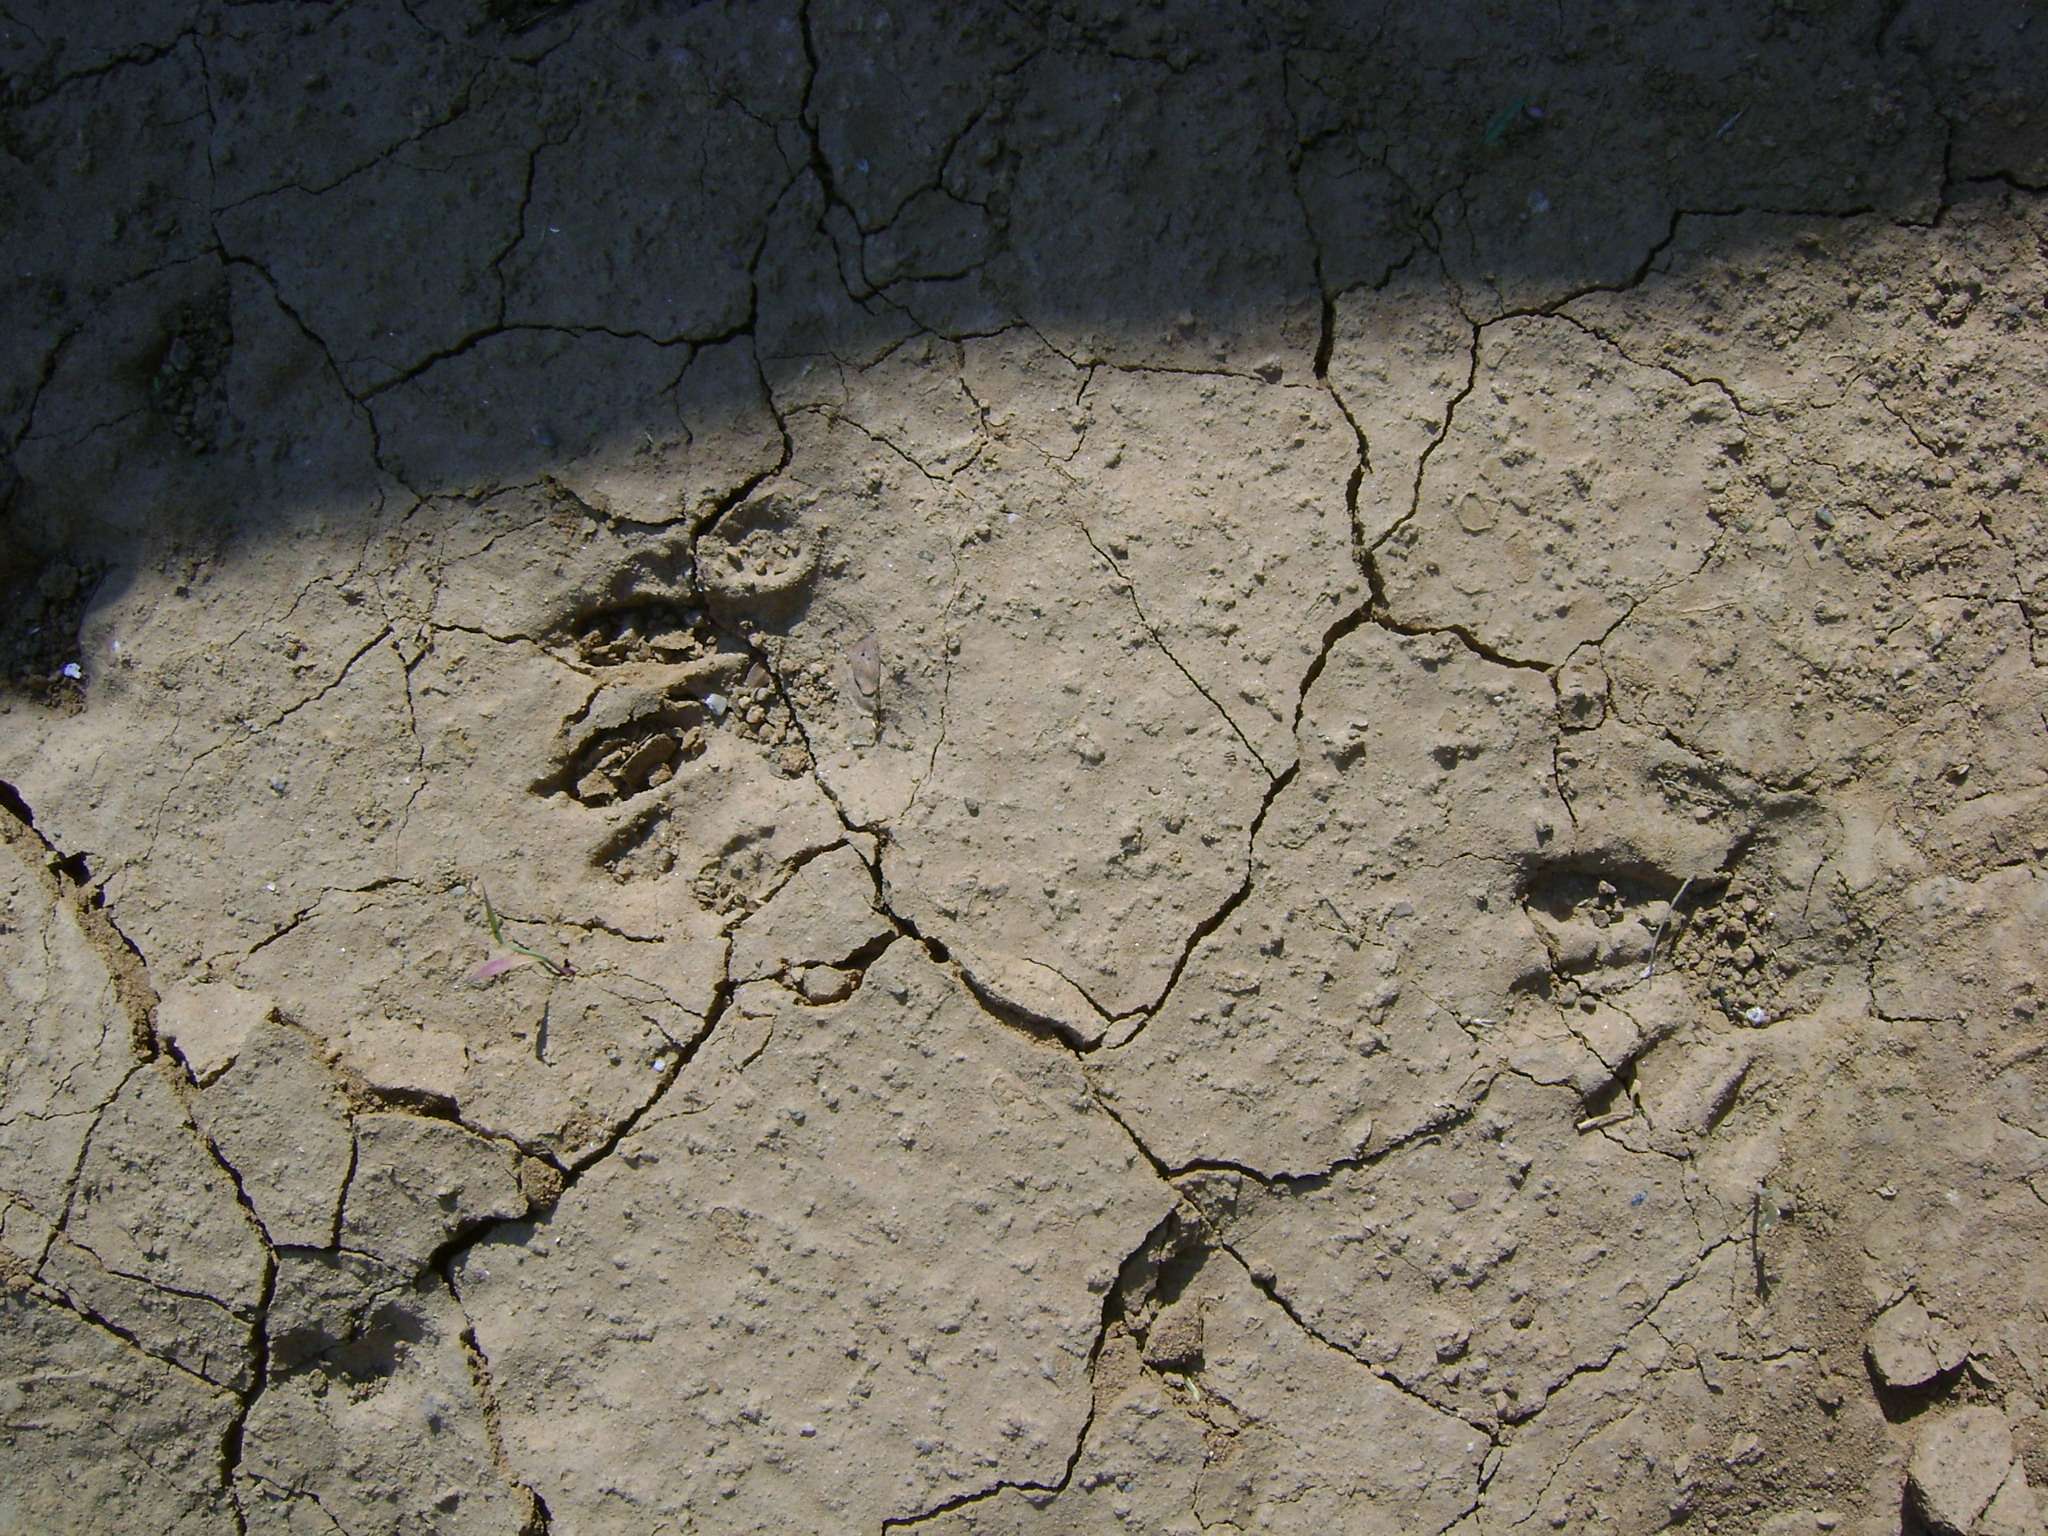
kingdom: Animalia
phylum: Chordata
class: Mammalia
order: Carnivora
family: Procyonidae
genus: Procyon
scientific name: Procyon lotor
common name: Raccoon
